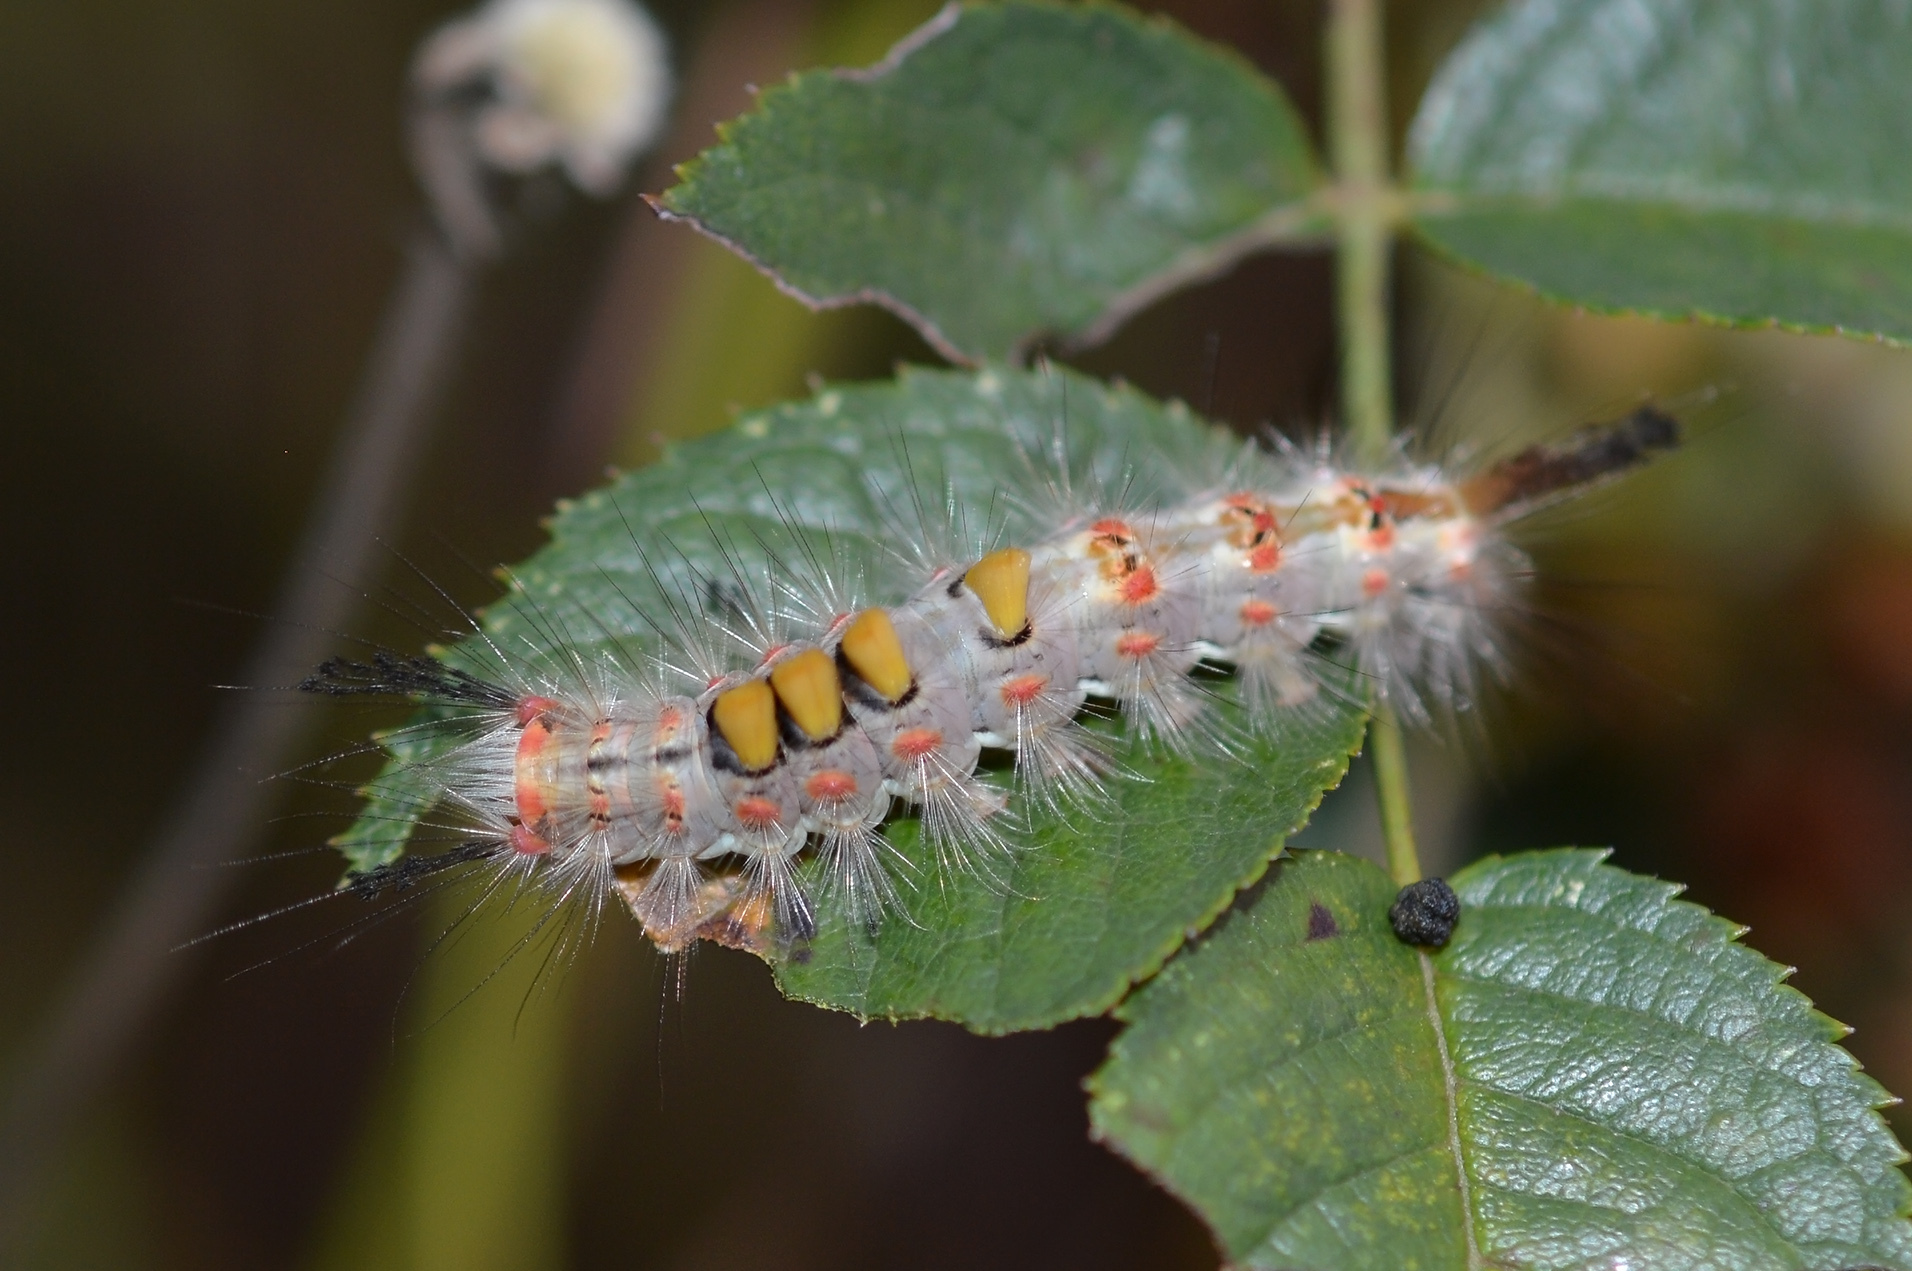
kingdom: Animalia
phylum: Arthropoda
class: Insecta
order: Lepidoptera
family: Erebidae
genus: Orgyia
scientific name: Orgyia antiqua
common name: Vapourer
